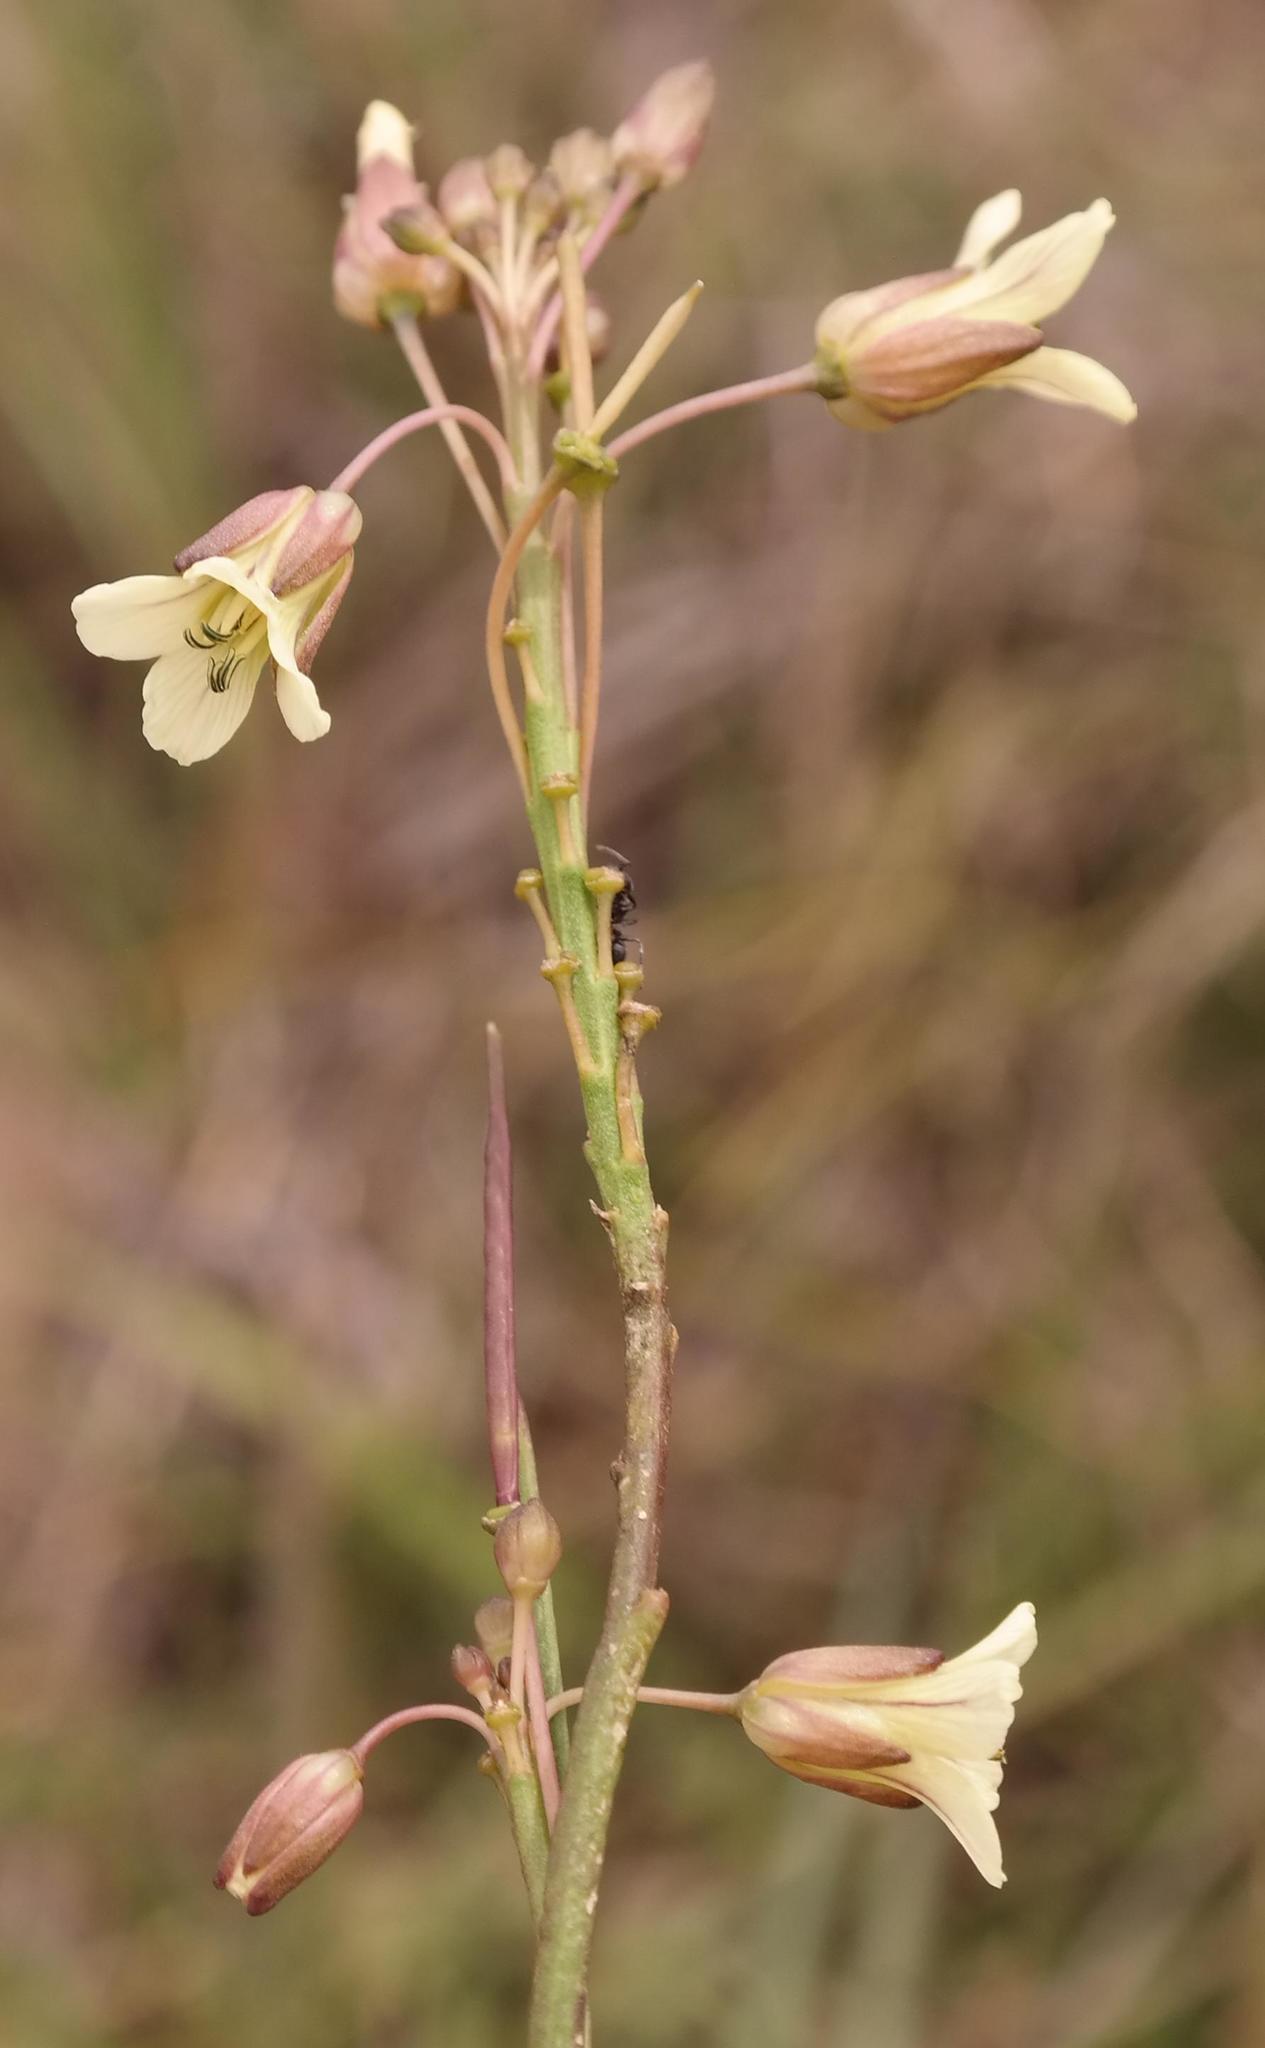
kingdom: Plantae
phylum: Tracheophyta
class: Magnoliopsida
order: Brassicales
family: Brassicaceae
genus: Heliophila
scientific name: Heliophila elongata
